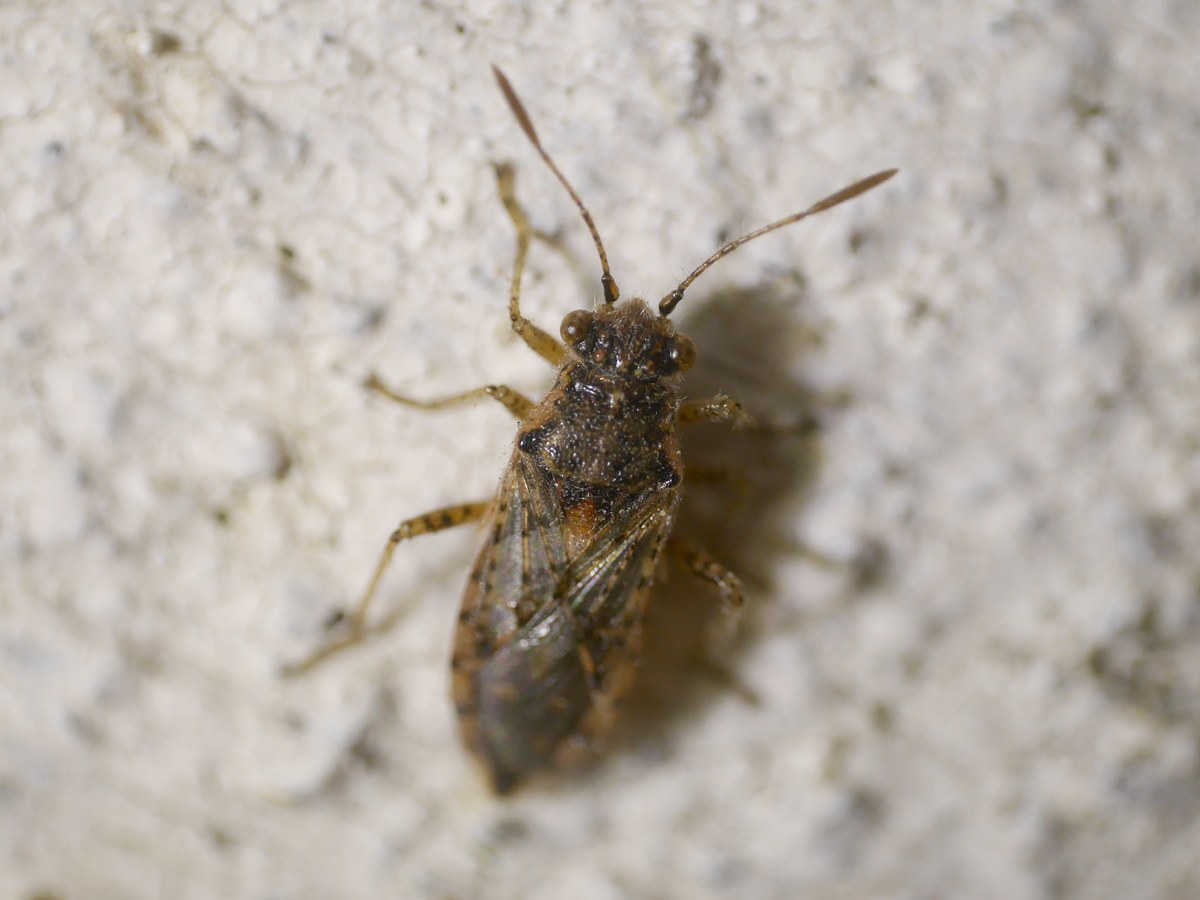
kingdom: Animalia
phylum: Arthropoda
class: Insecta
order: Hemiptera
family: Rhopalidae
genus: Brachycarenus
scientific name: Brachycarenus tigrinus
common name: Scentless plant bug
